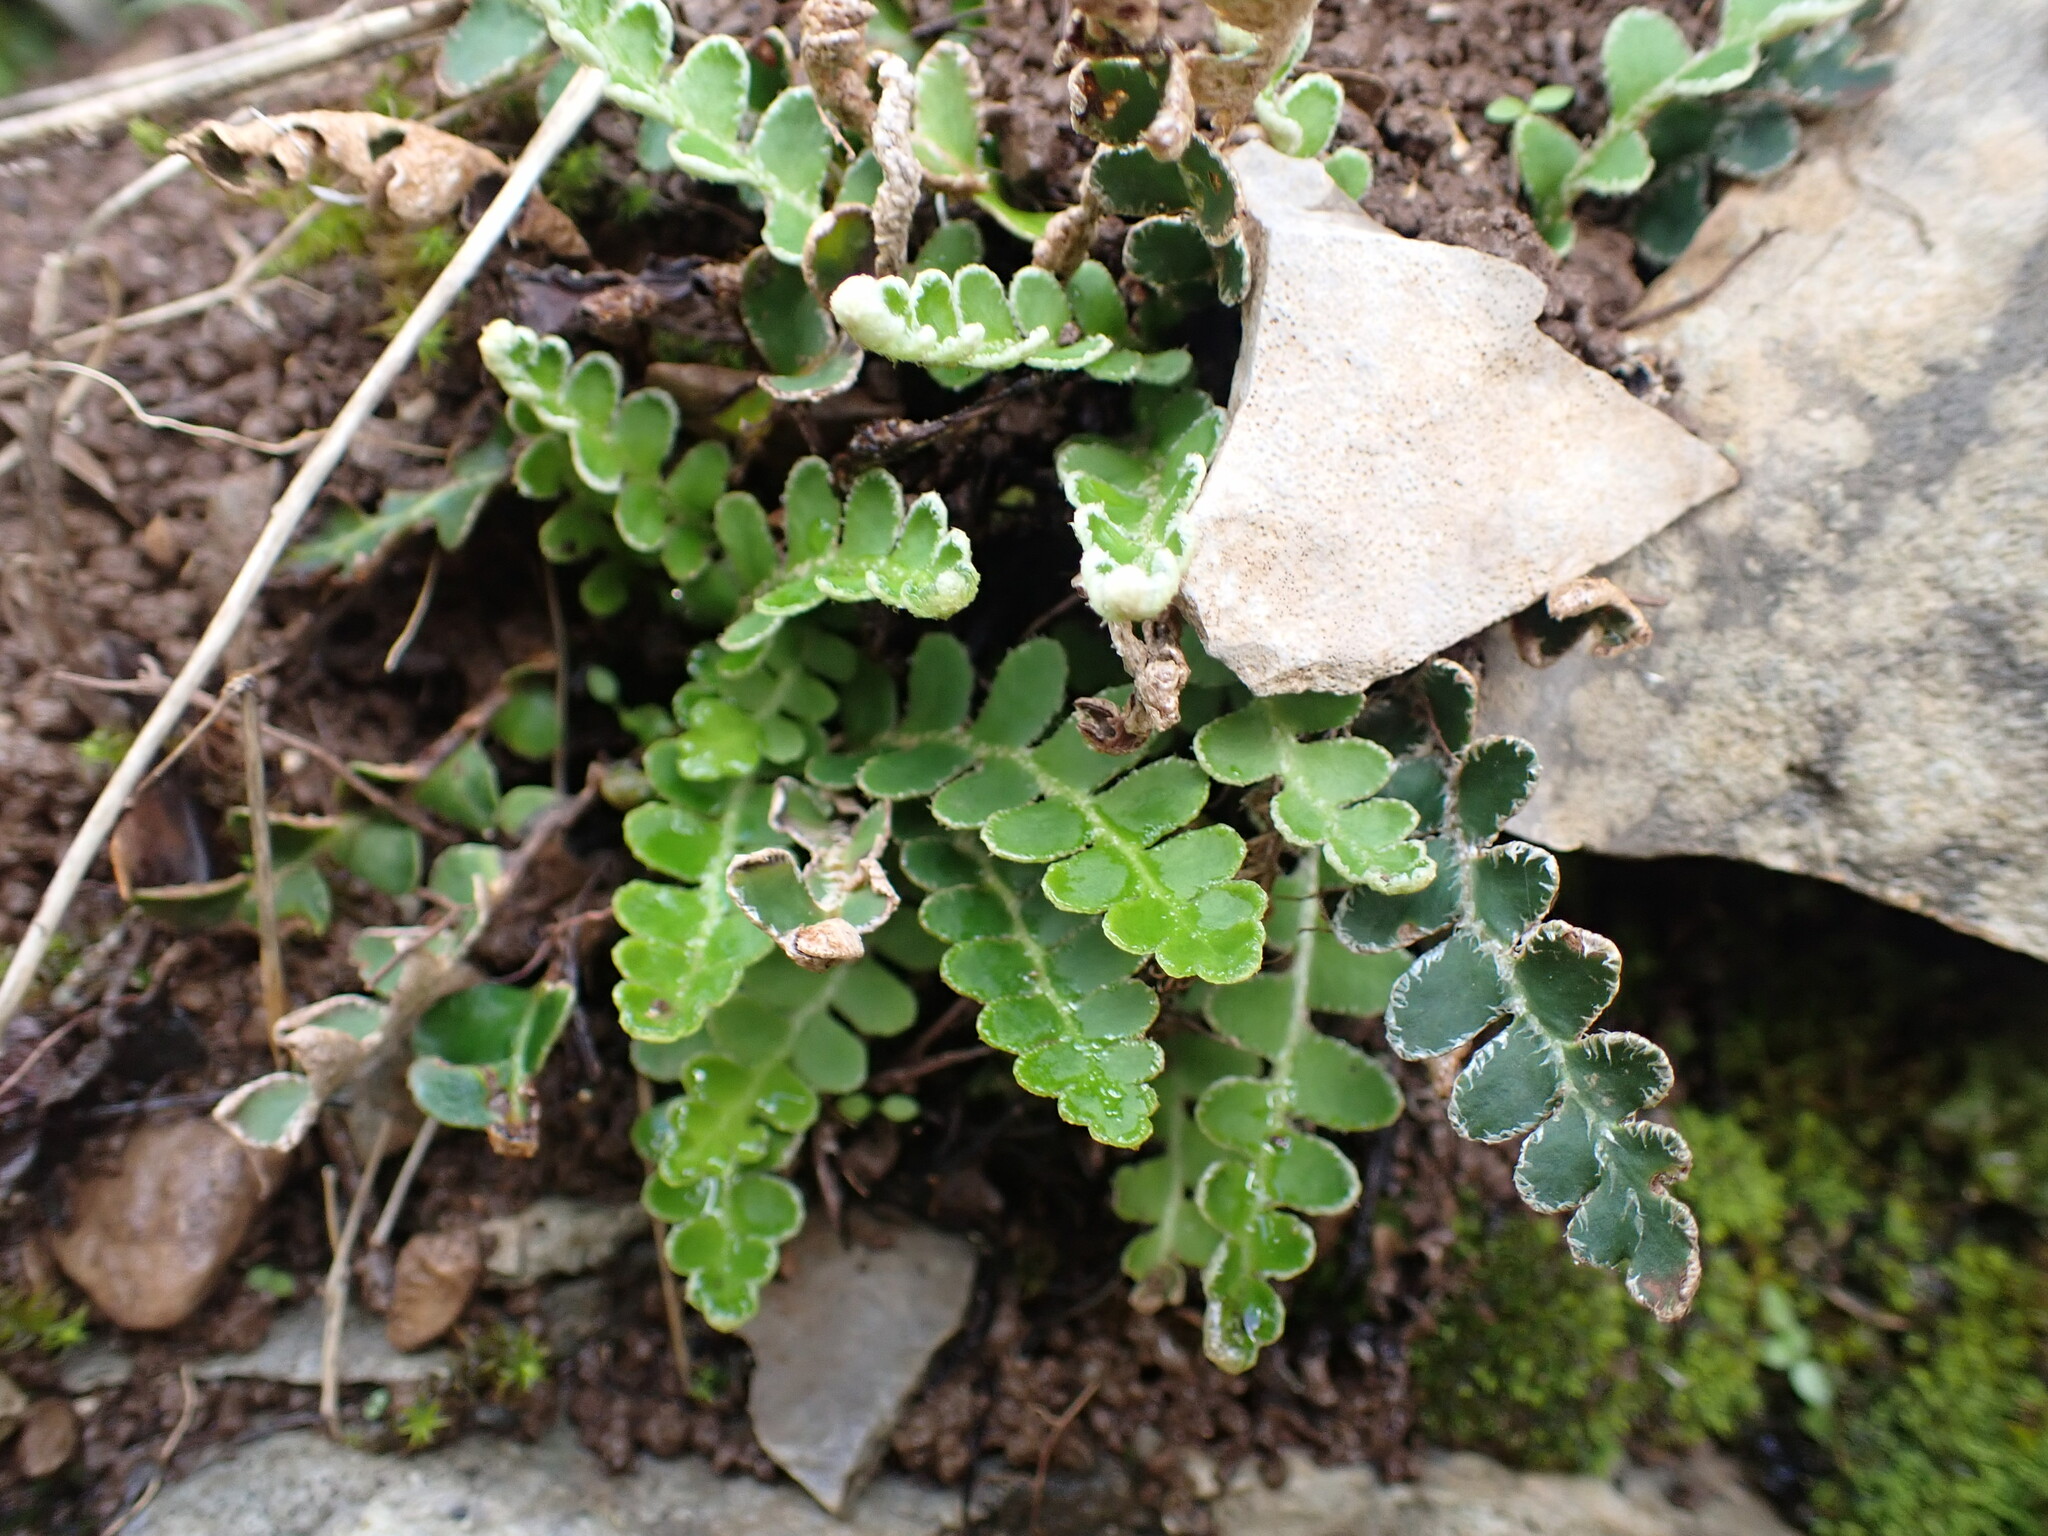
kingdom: Plantae
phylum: Tracheophyta
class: Polypodiopsida
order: Polypodiales
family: Aspleniaceae
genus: Asplenium
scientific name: Asplenium ceterach
